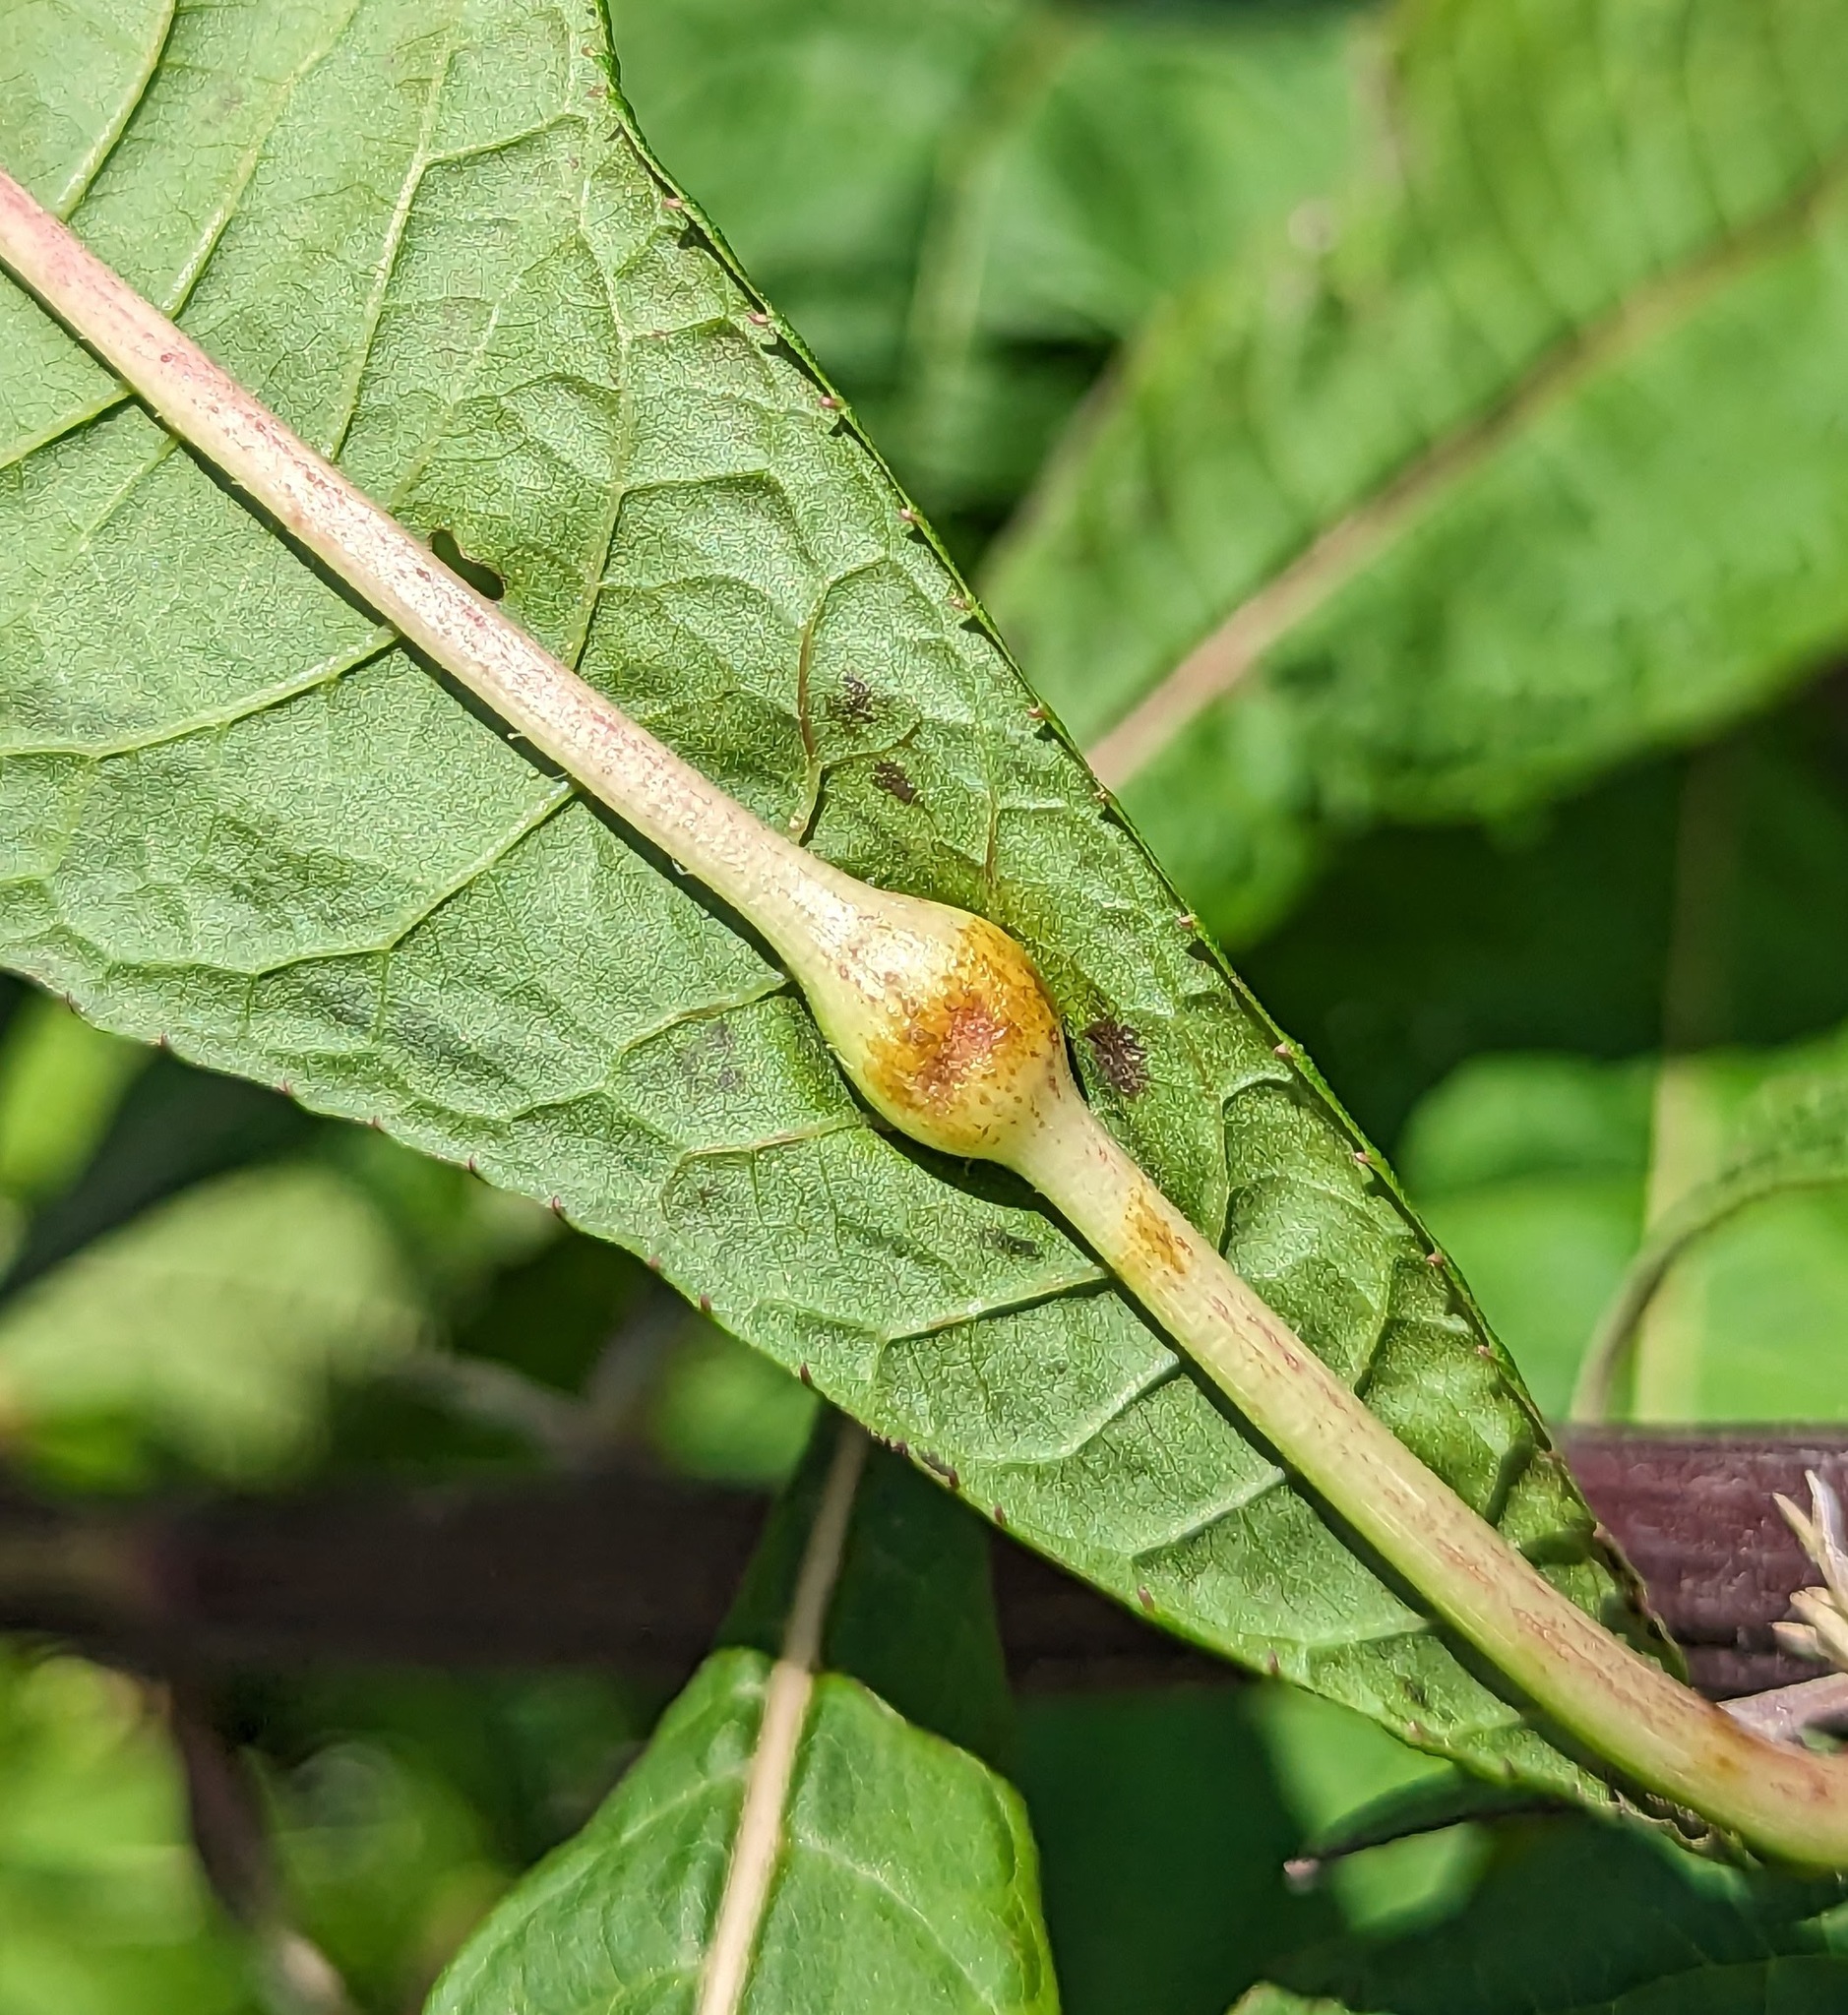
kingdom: Animalia
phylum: Arthropoda
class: Insecta
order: Diptera
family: Cecidomyiidae
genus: Neolasioptera
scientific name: Neolasioptera vernoniae
